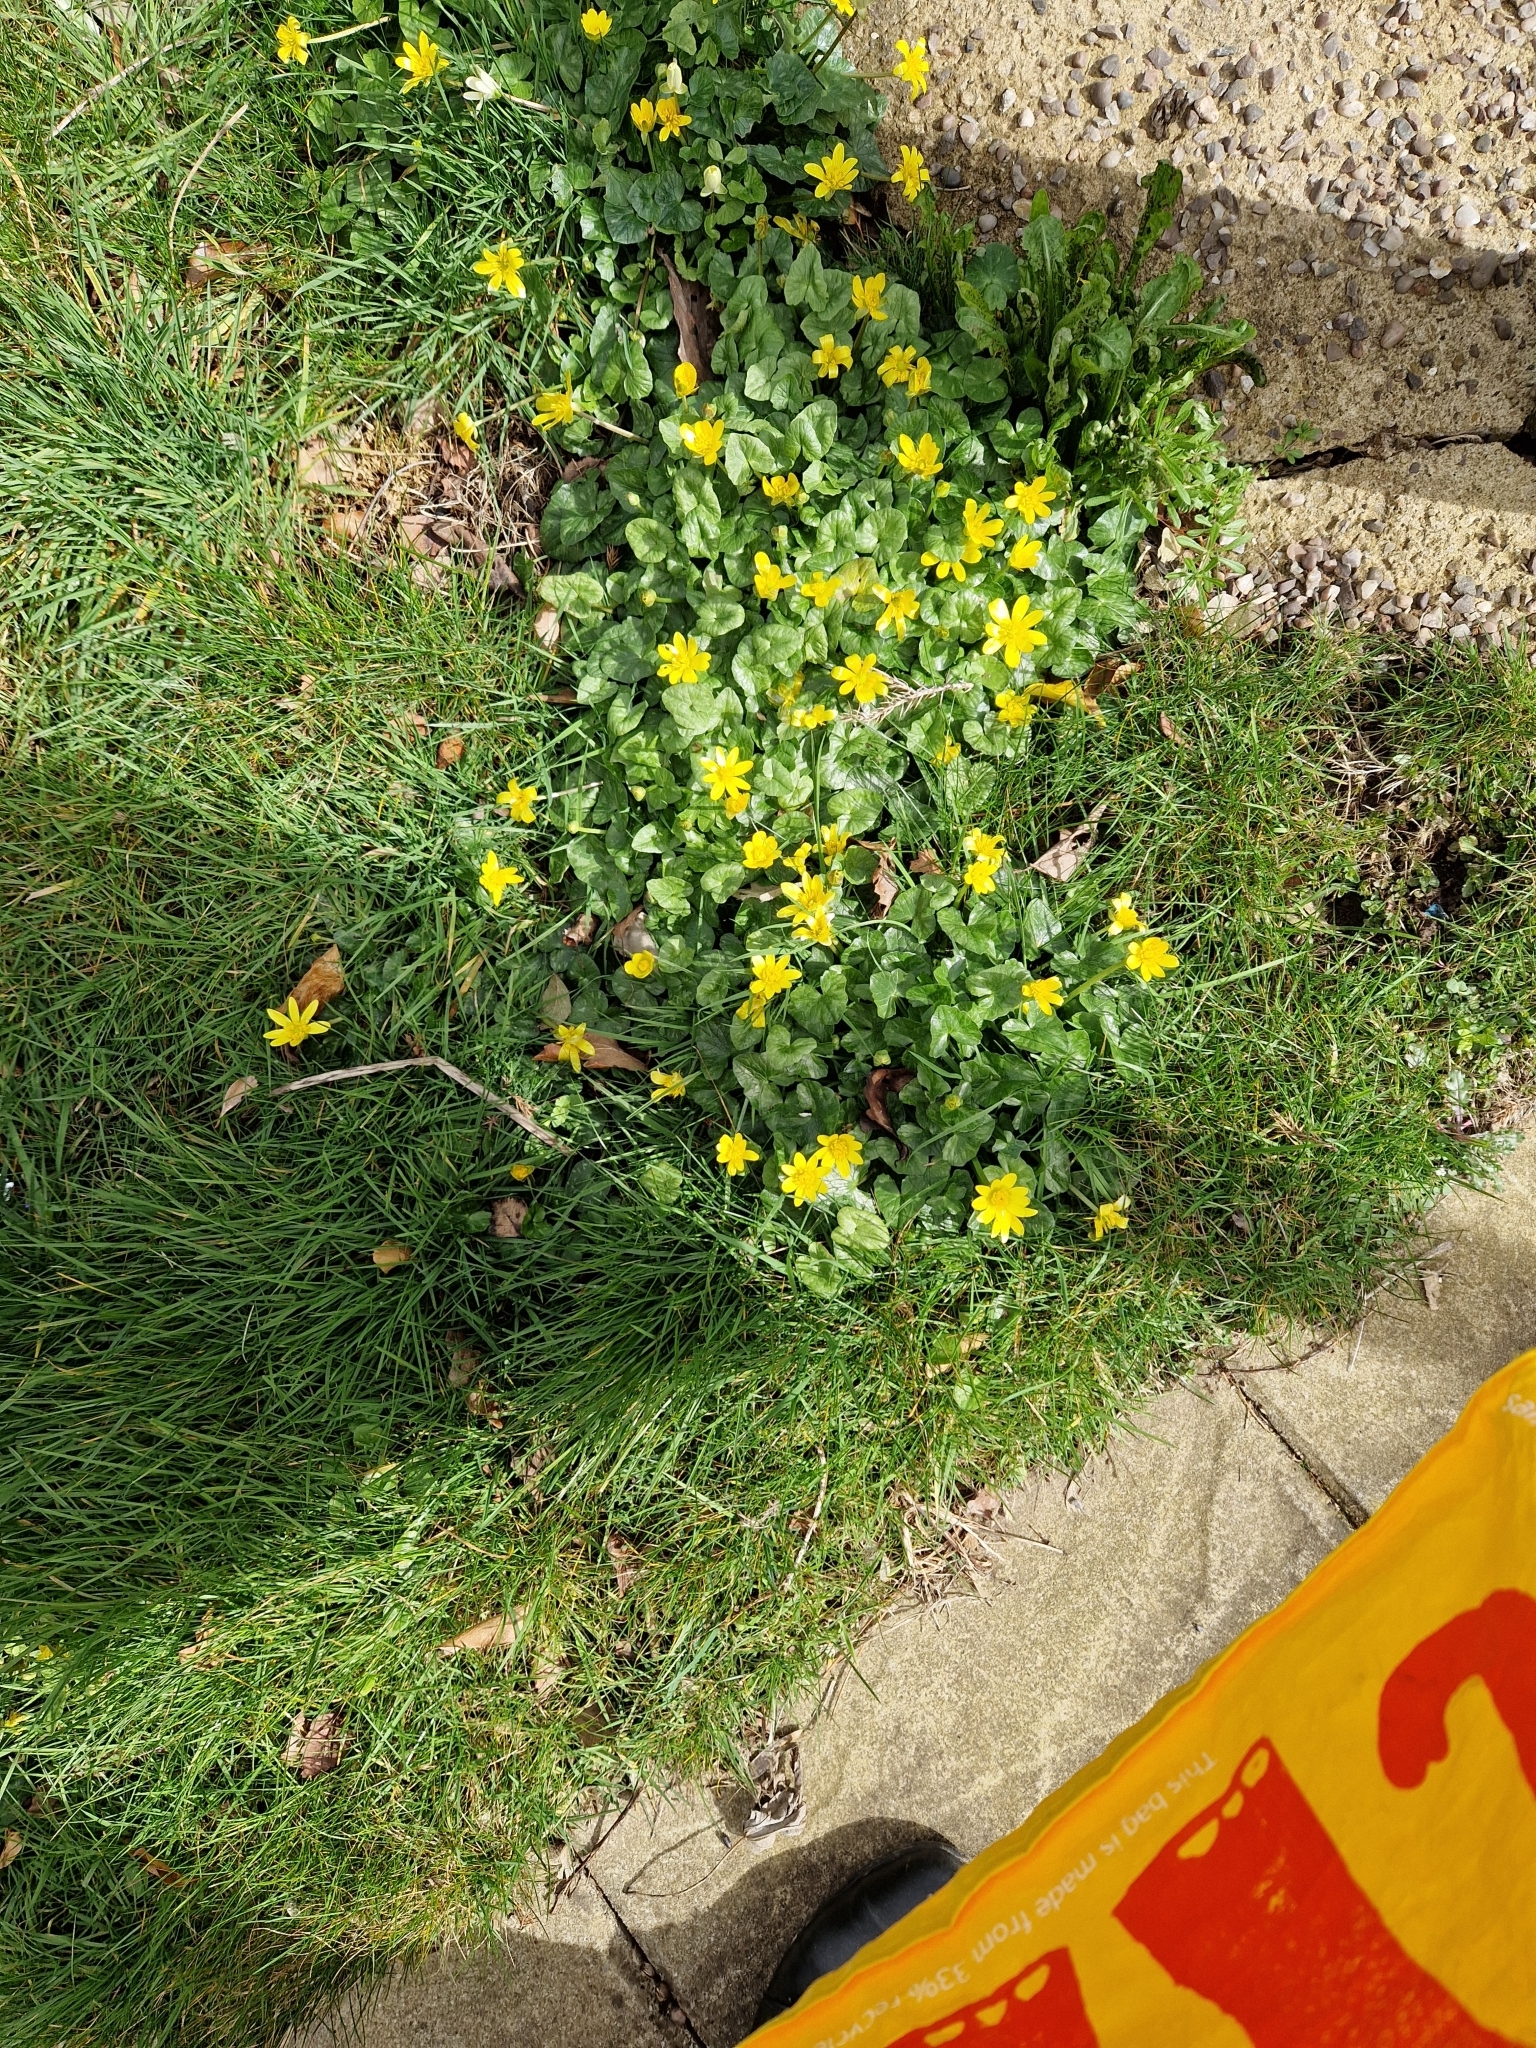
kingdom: Plantae
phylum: Tracheophyta
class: Magnoliopsida
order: Ranunculales
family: Ranunculaceae
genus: Ficaria
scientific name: Ficaria verna
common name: Lesser celandine
